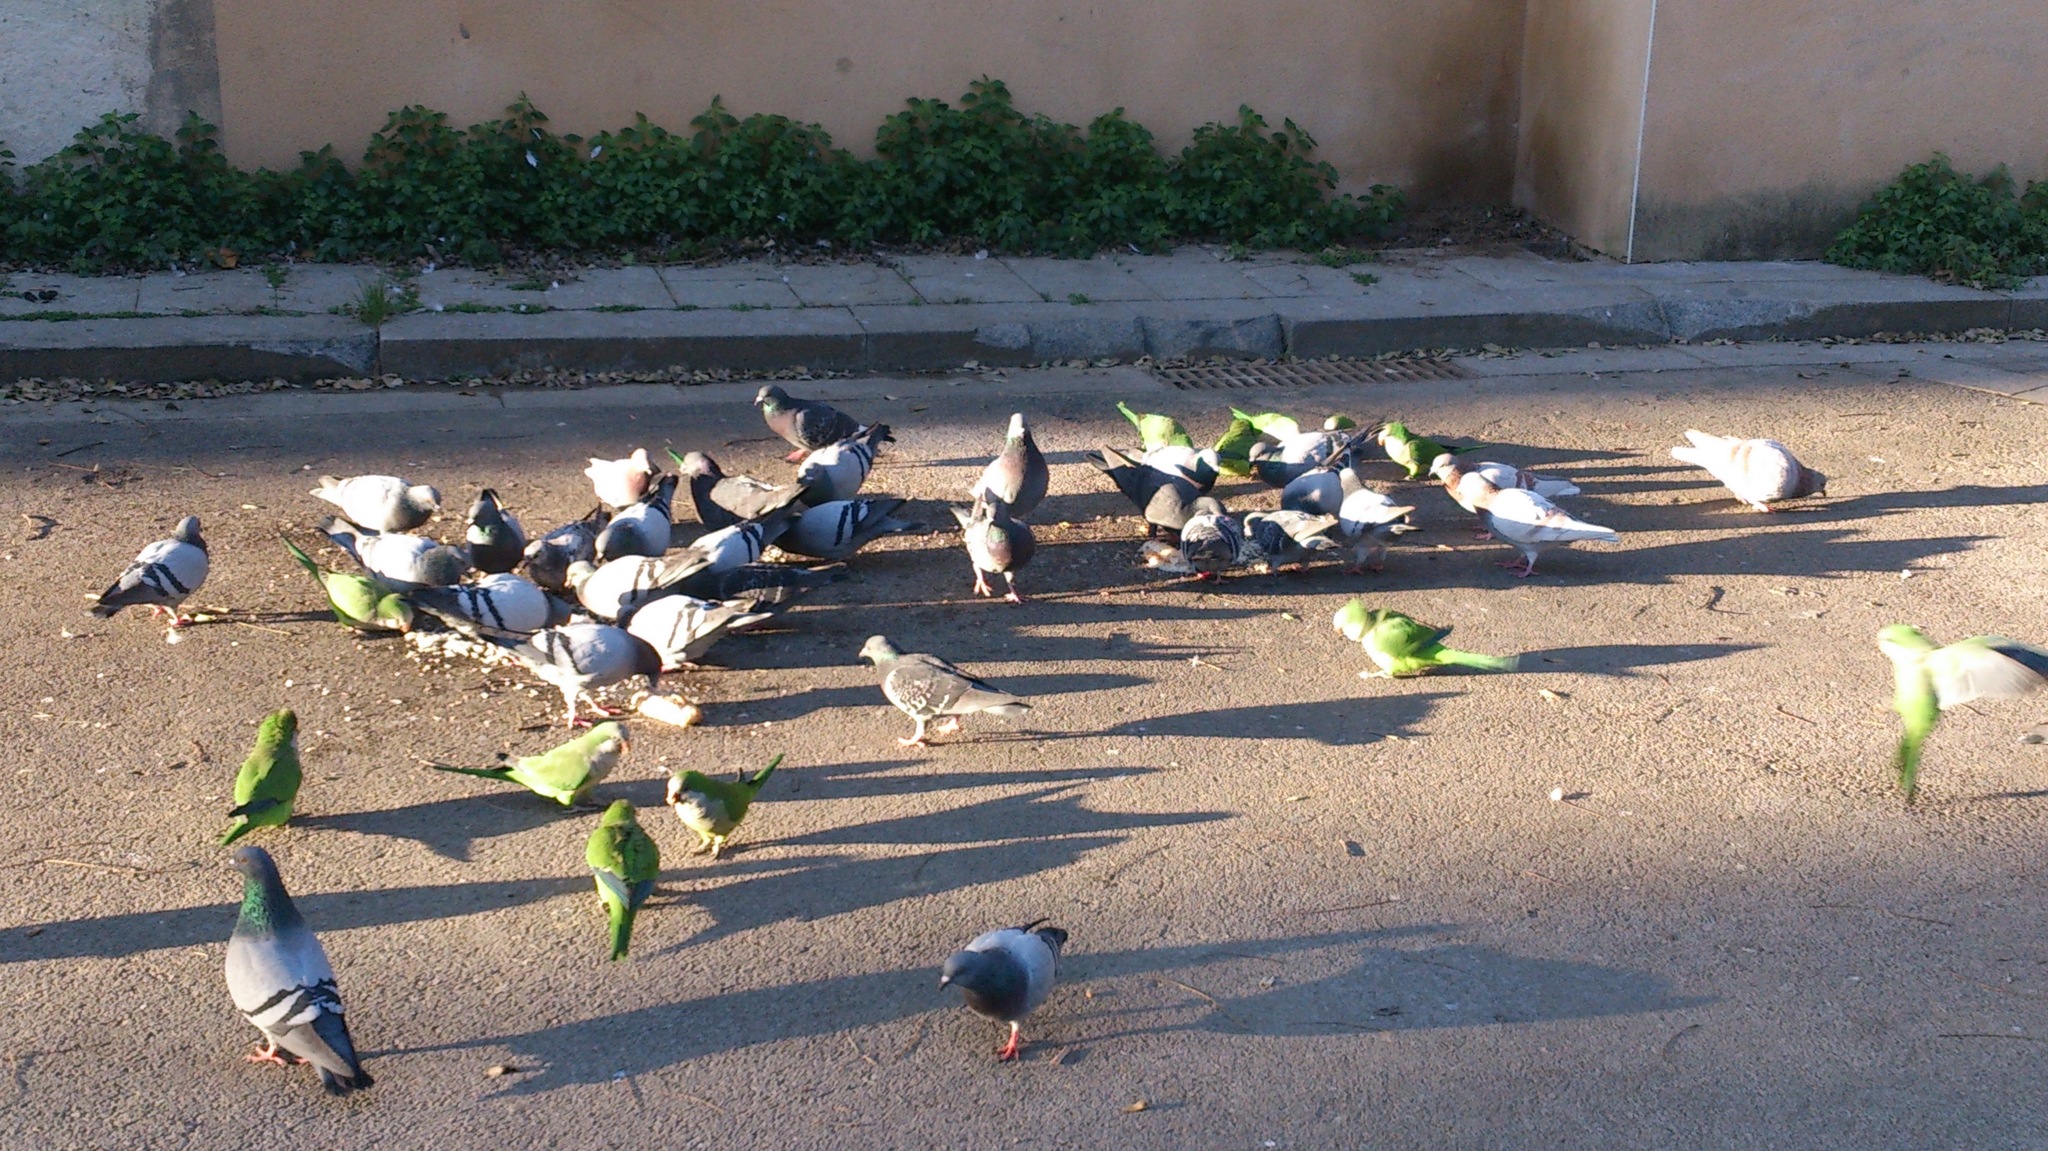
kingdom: Animalia
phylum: Chordata
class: Aves
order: Psittaciformes
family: Psittacidae
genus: Myiopsitta
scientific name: Myiopsitta monachus
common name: Monk parakeet
